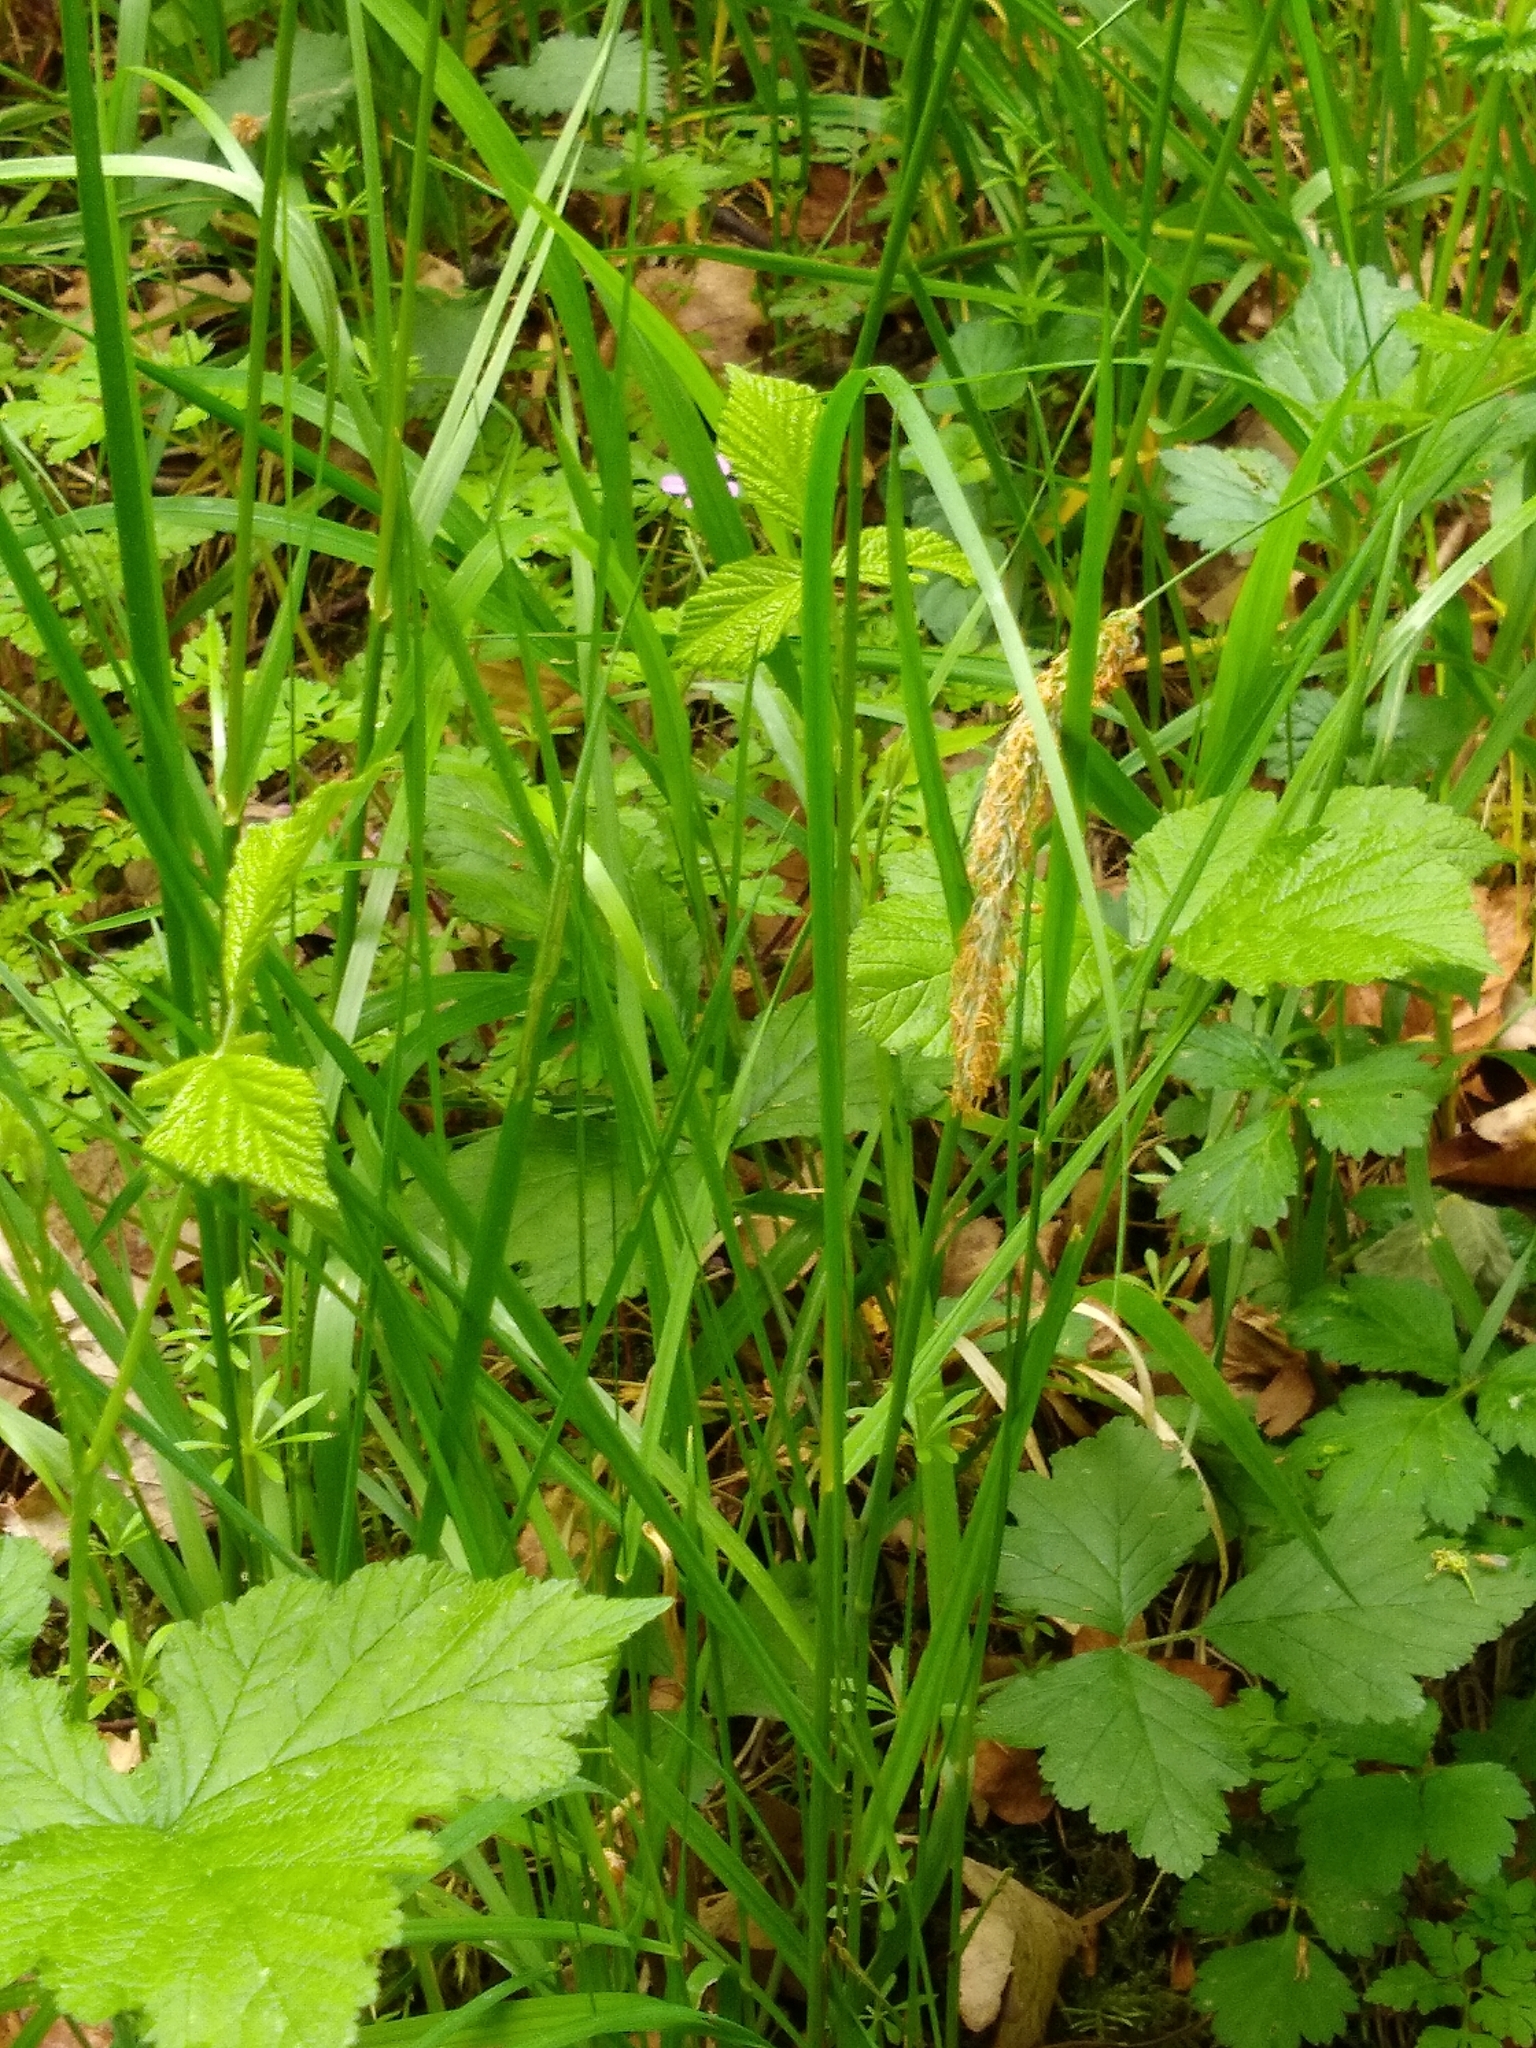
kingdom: Plantae
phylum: Tracheophyta
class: Liliopsida
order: Poales
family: Poaceae
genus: Alopecurus
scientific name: Alopecurus pratensis
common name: Meadow foxtail
